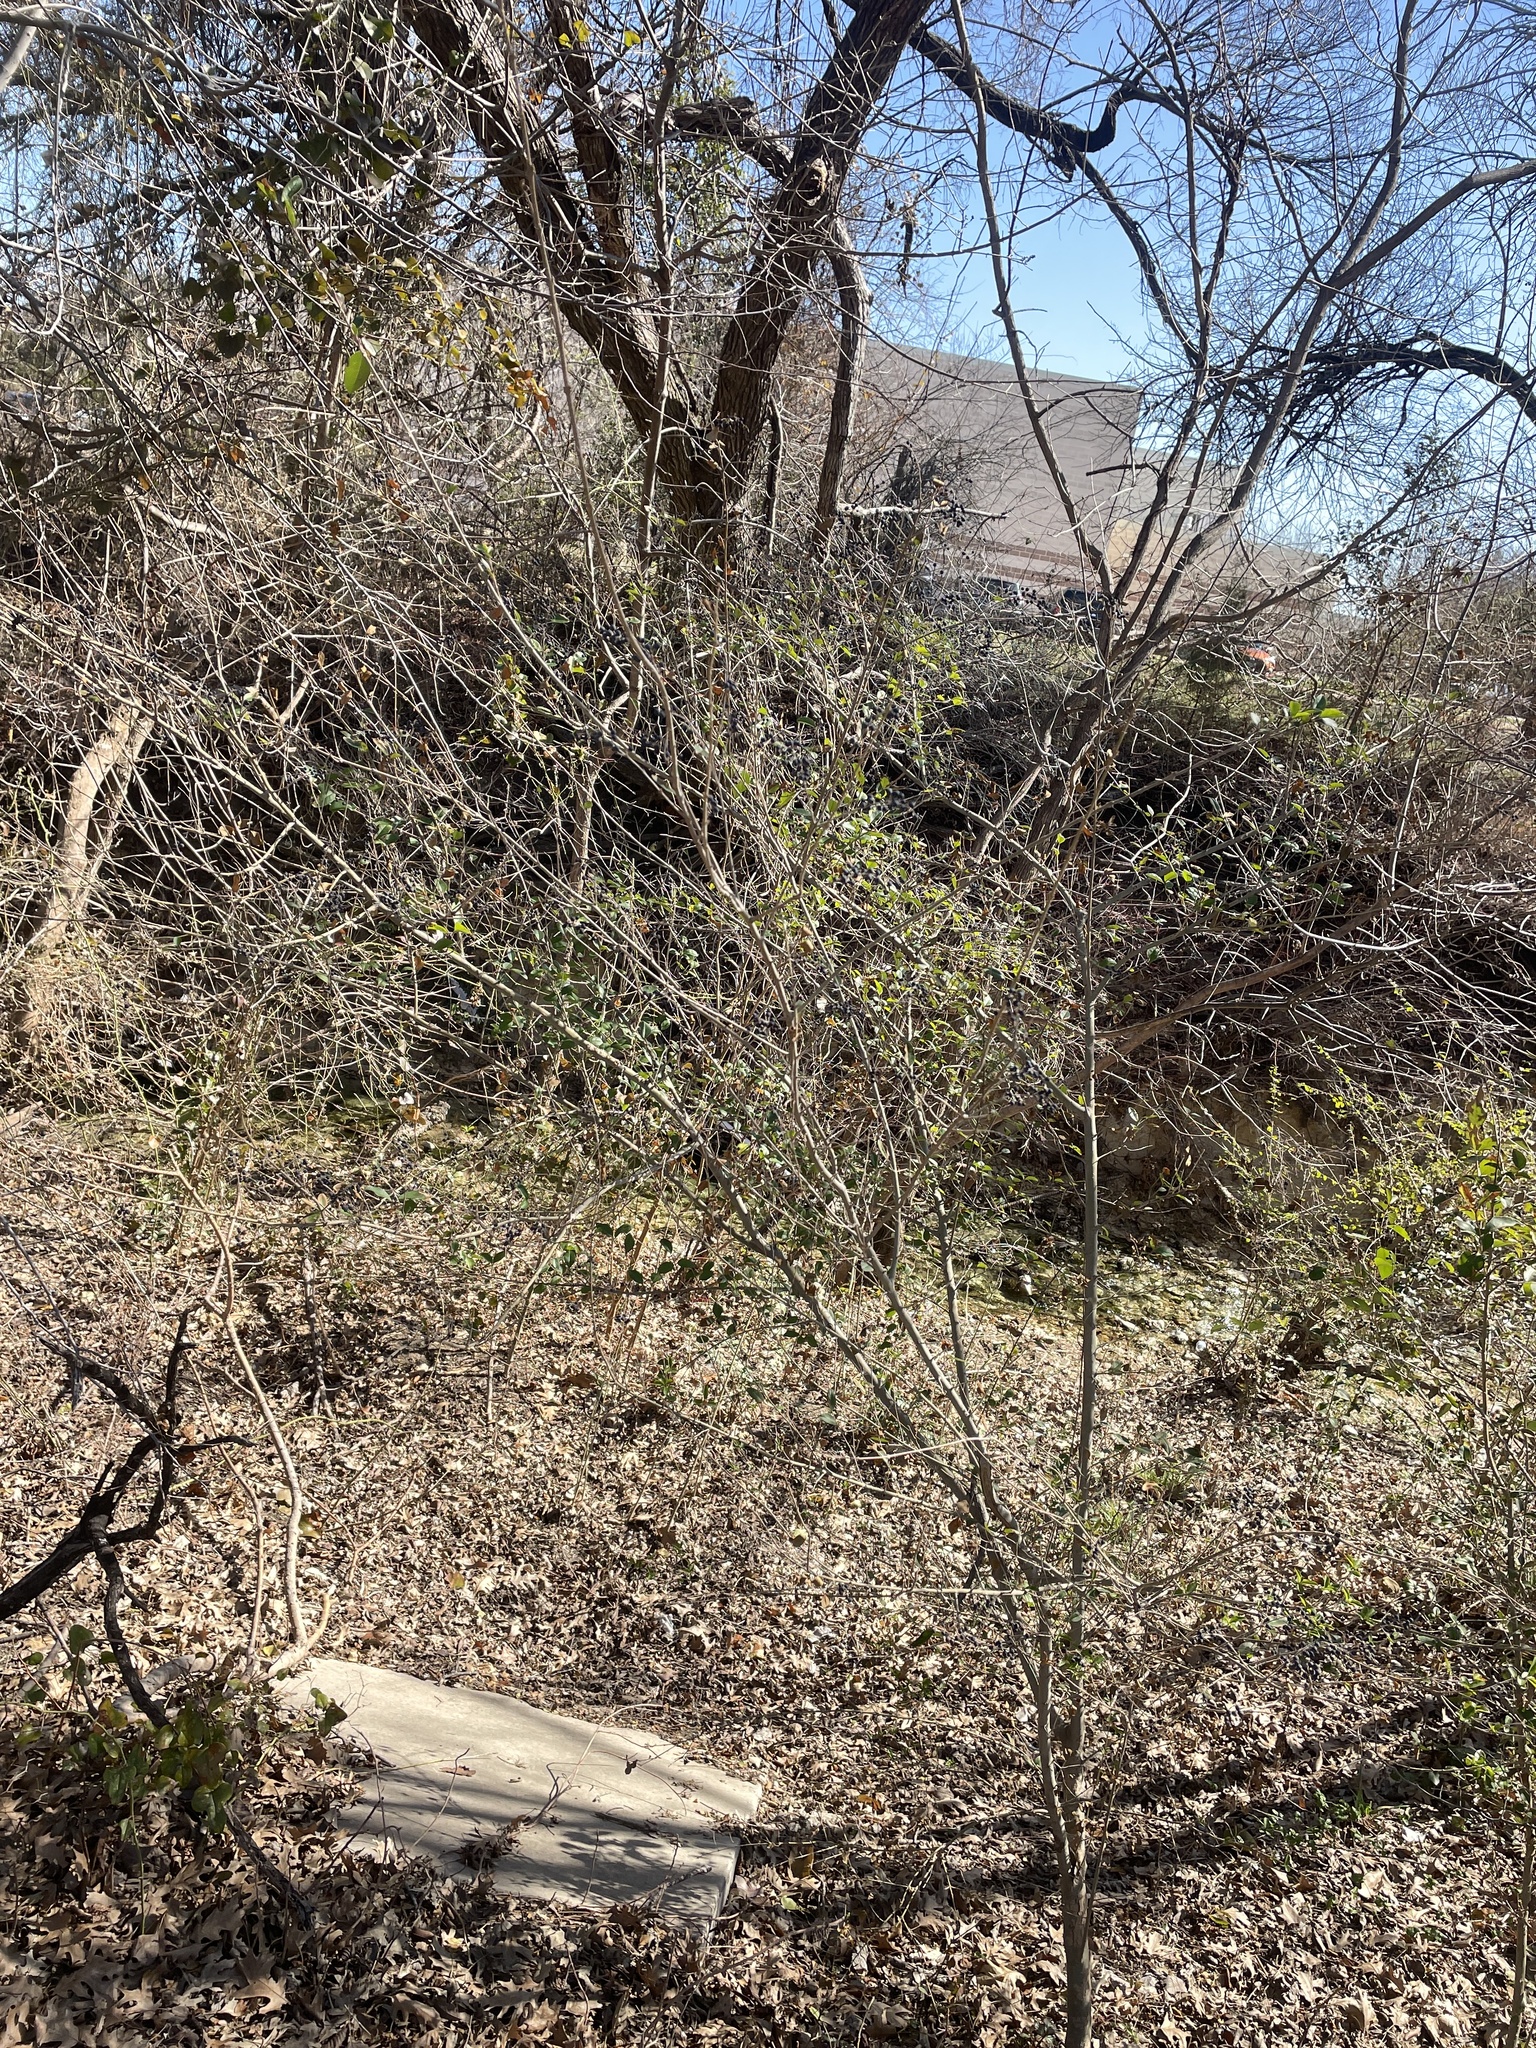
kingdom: Plantae
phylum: Tracheophyta
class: Magnoliopsida
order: Lamiales
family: Oleaceae
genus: Ligustrum
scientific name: Ligustrum sinense
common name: Chinese privet
